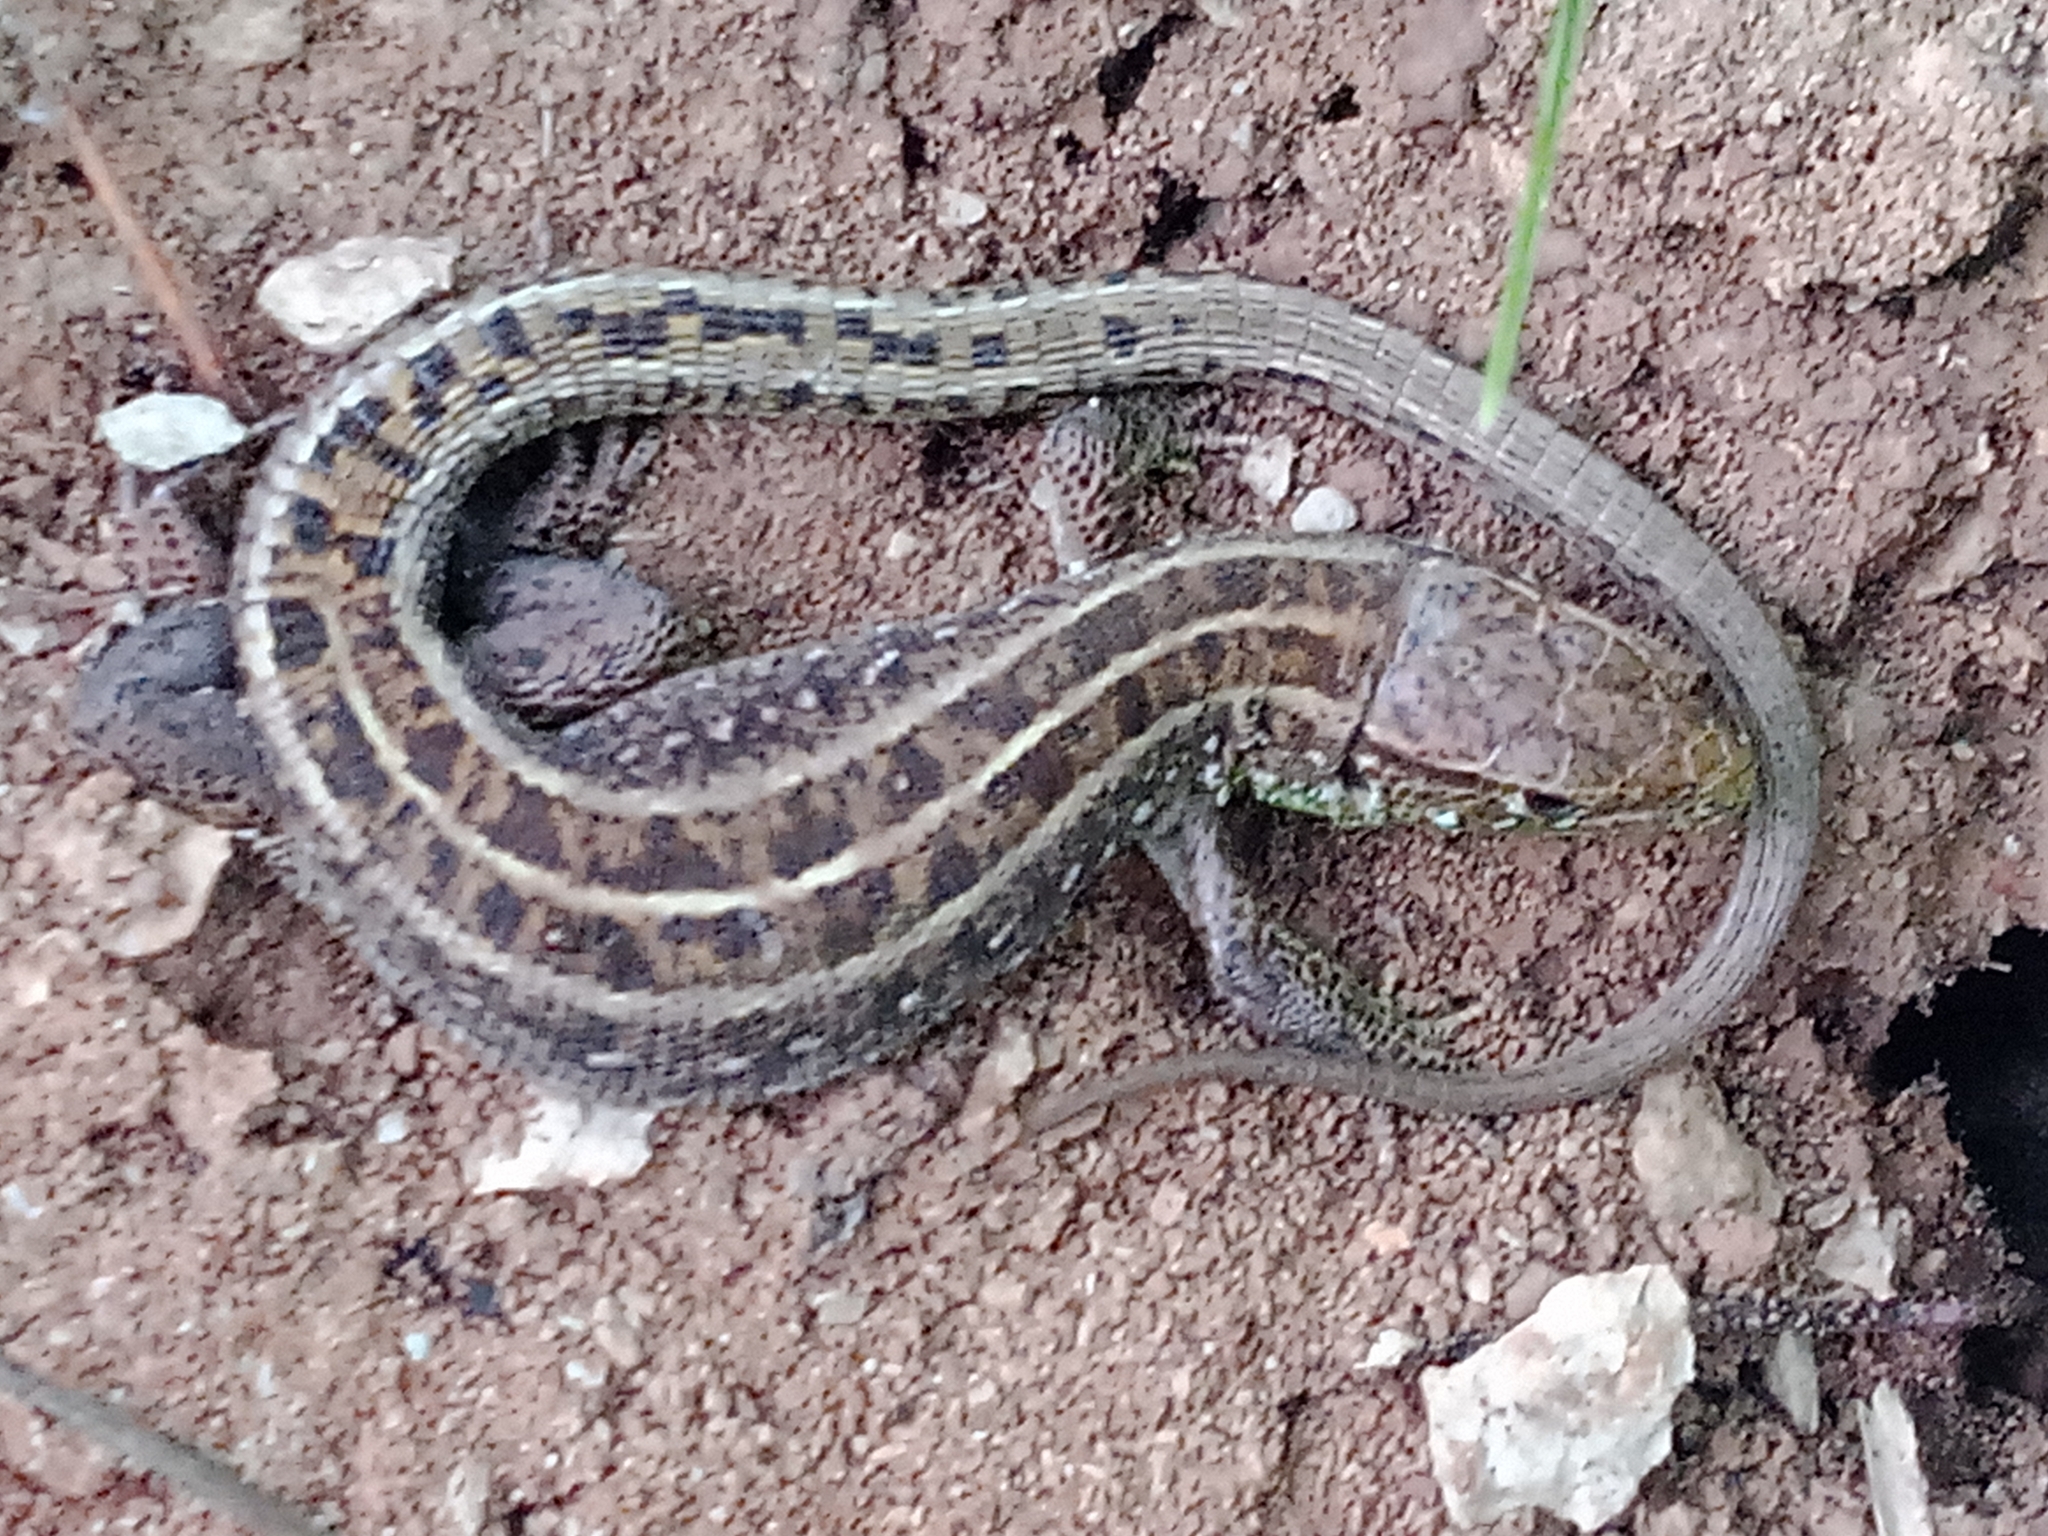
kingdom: Animalia
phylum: Chordata
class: Squamata
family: Lacertidae
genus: Lacerta
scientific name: Lacerta agilis
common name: Sand lizard
